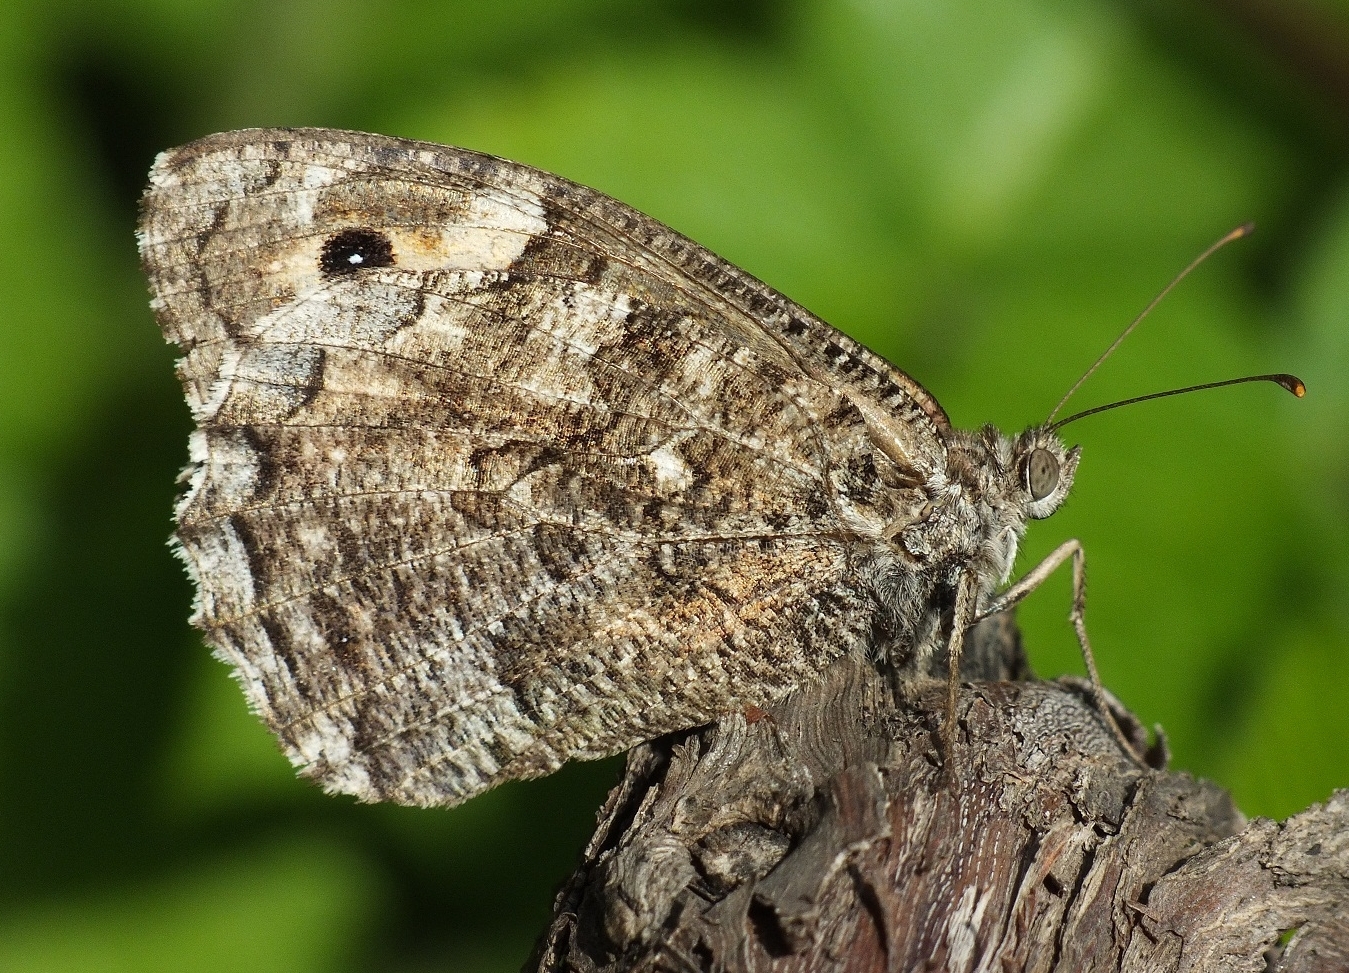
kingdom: Animalia
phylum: Arthropoda
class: Insecta
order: Lepidoptera
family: Nymphalidae
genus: Hipparchia
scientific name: Hipparchia volgensis
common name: Delattin’s grayling
